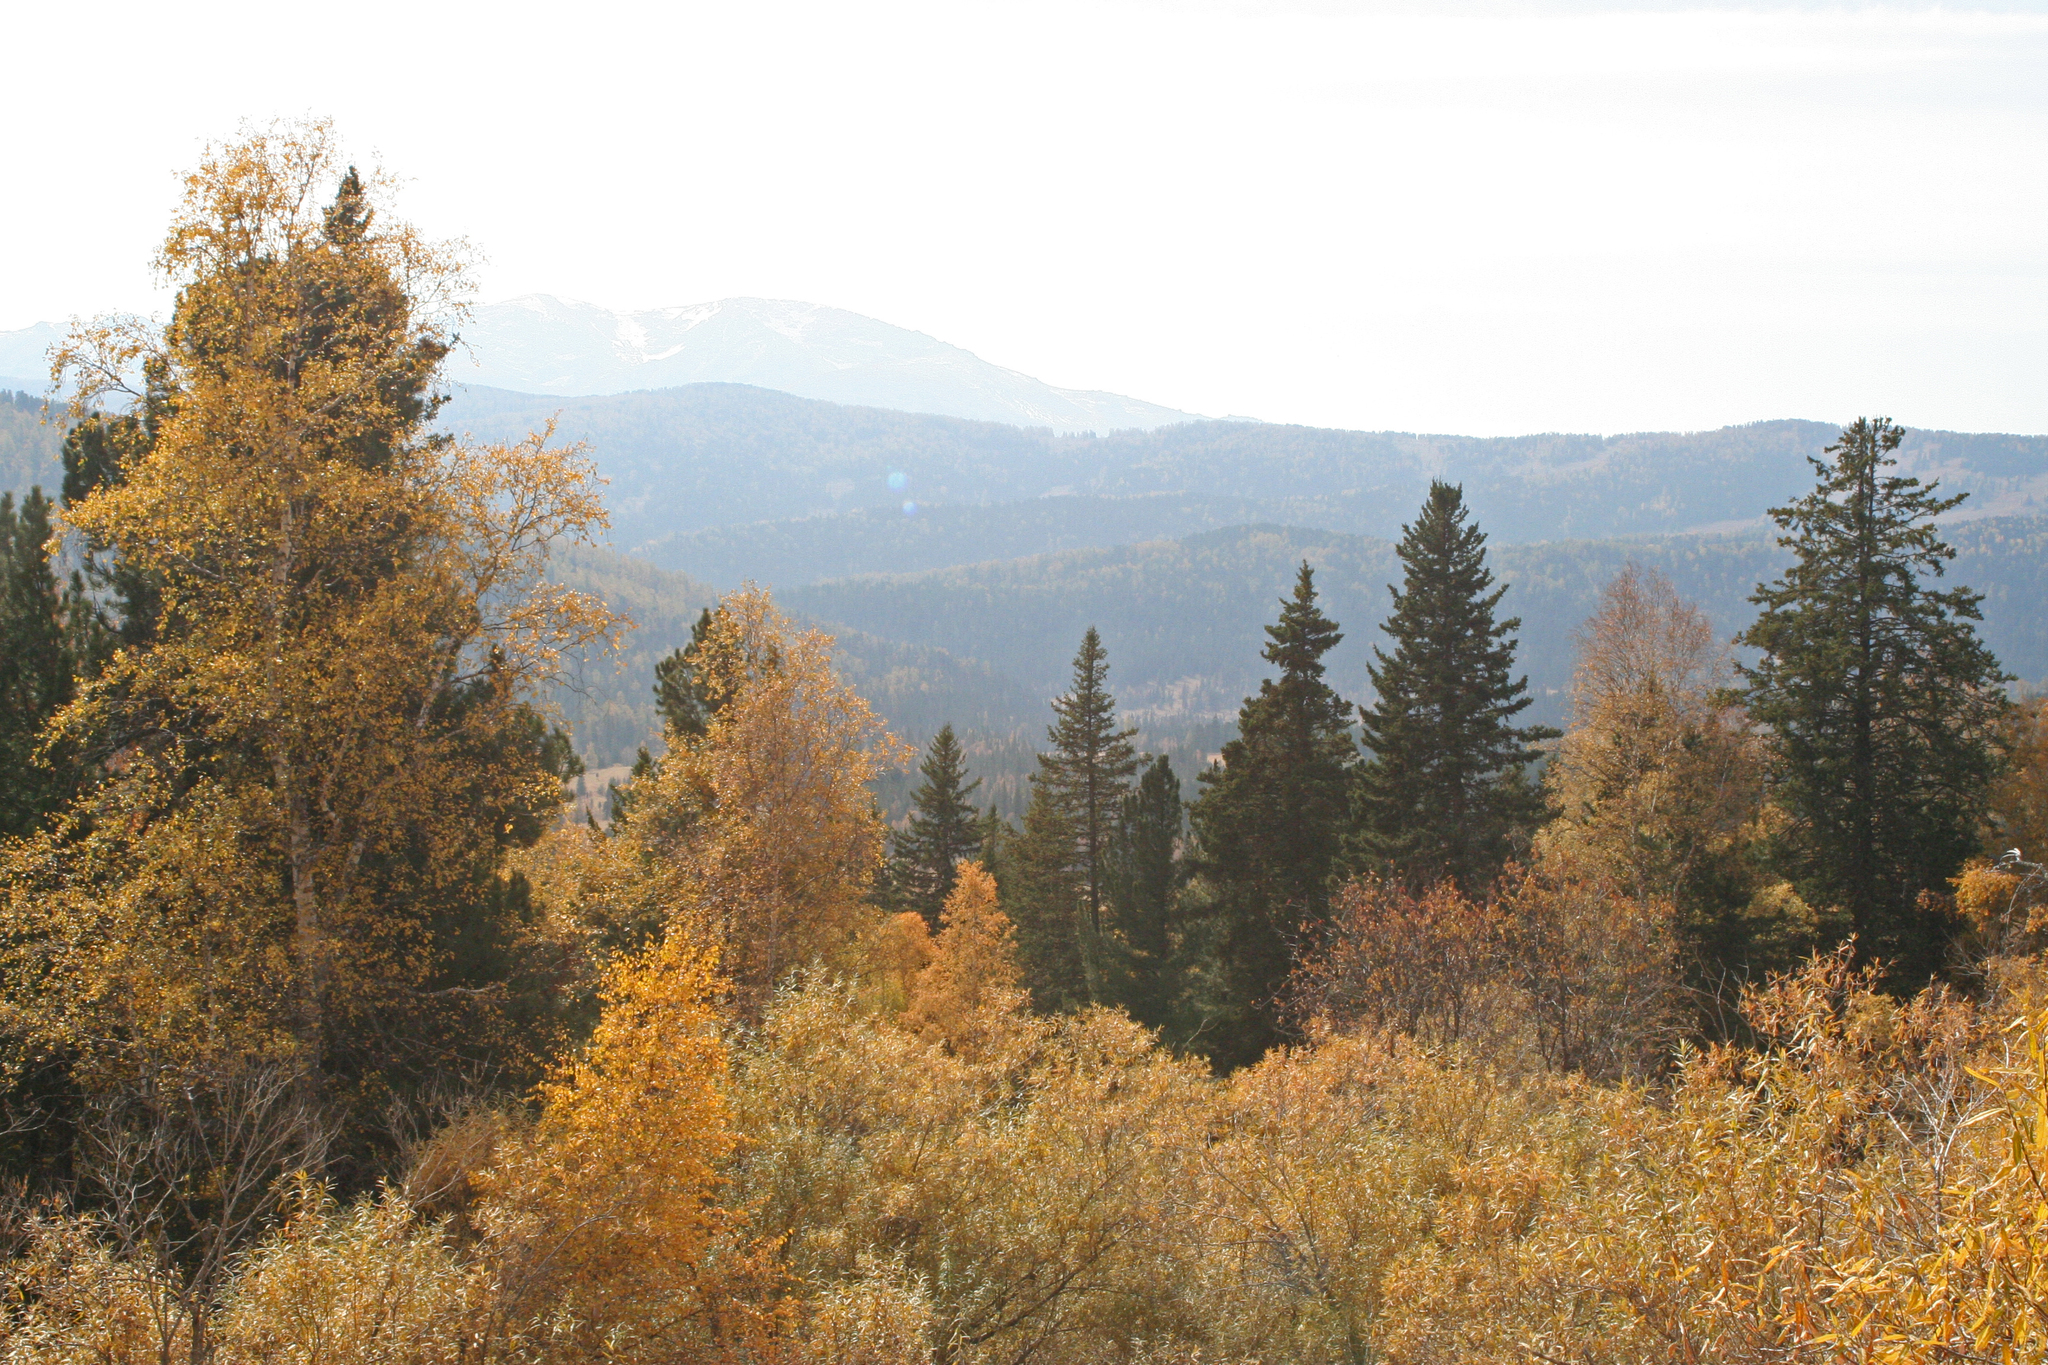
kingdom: Plantae
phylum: Tracheophyta
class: Pinopsida
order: Pinales
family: Pinaceae
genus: Picea
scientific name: Picea obovata
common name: Siberian spruce
